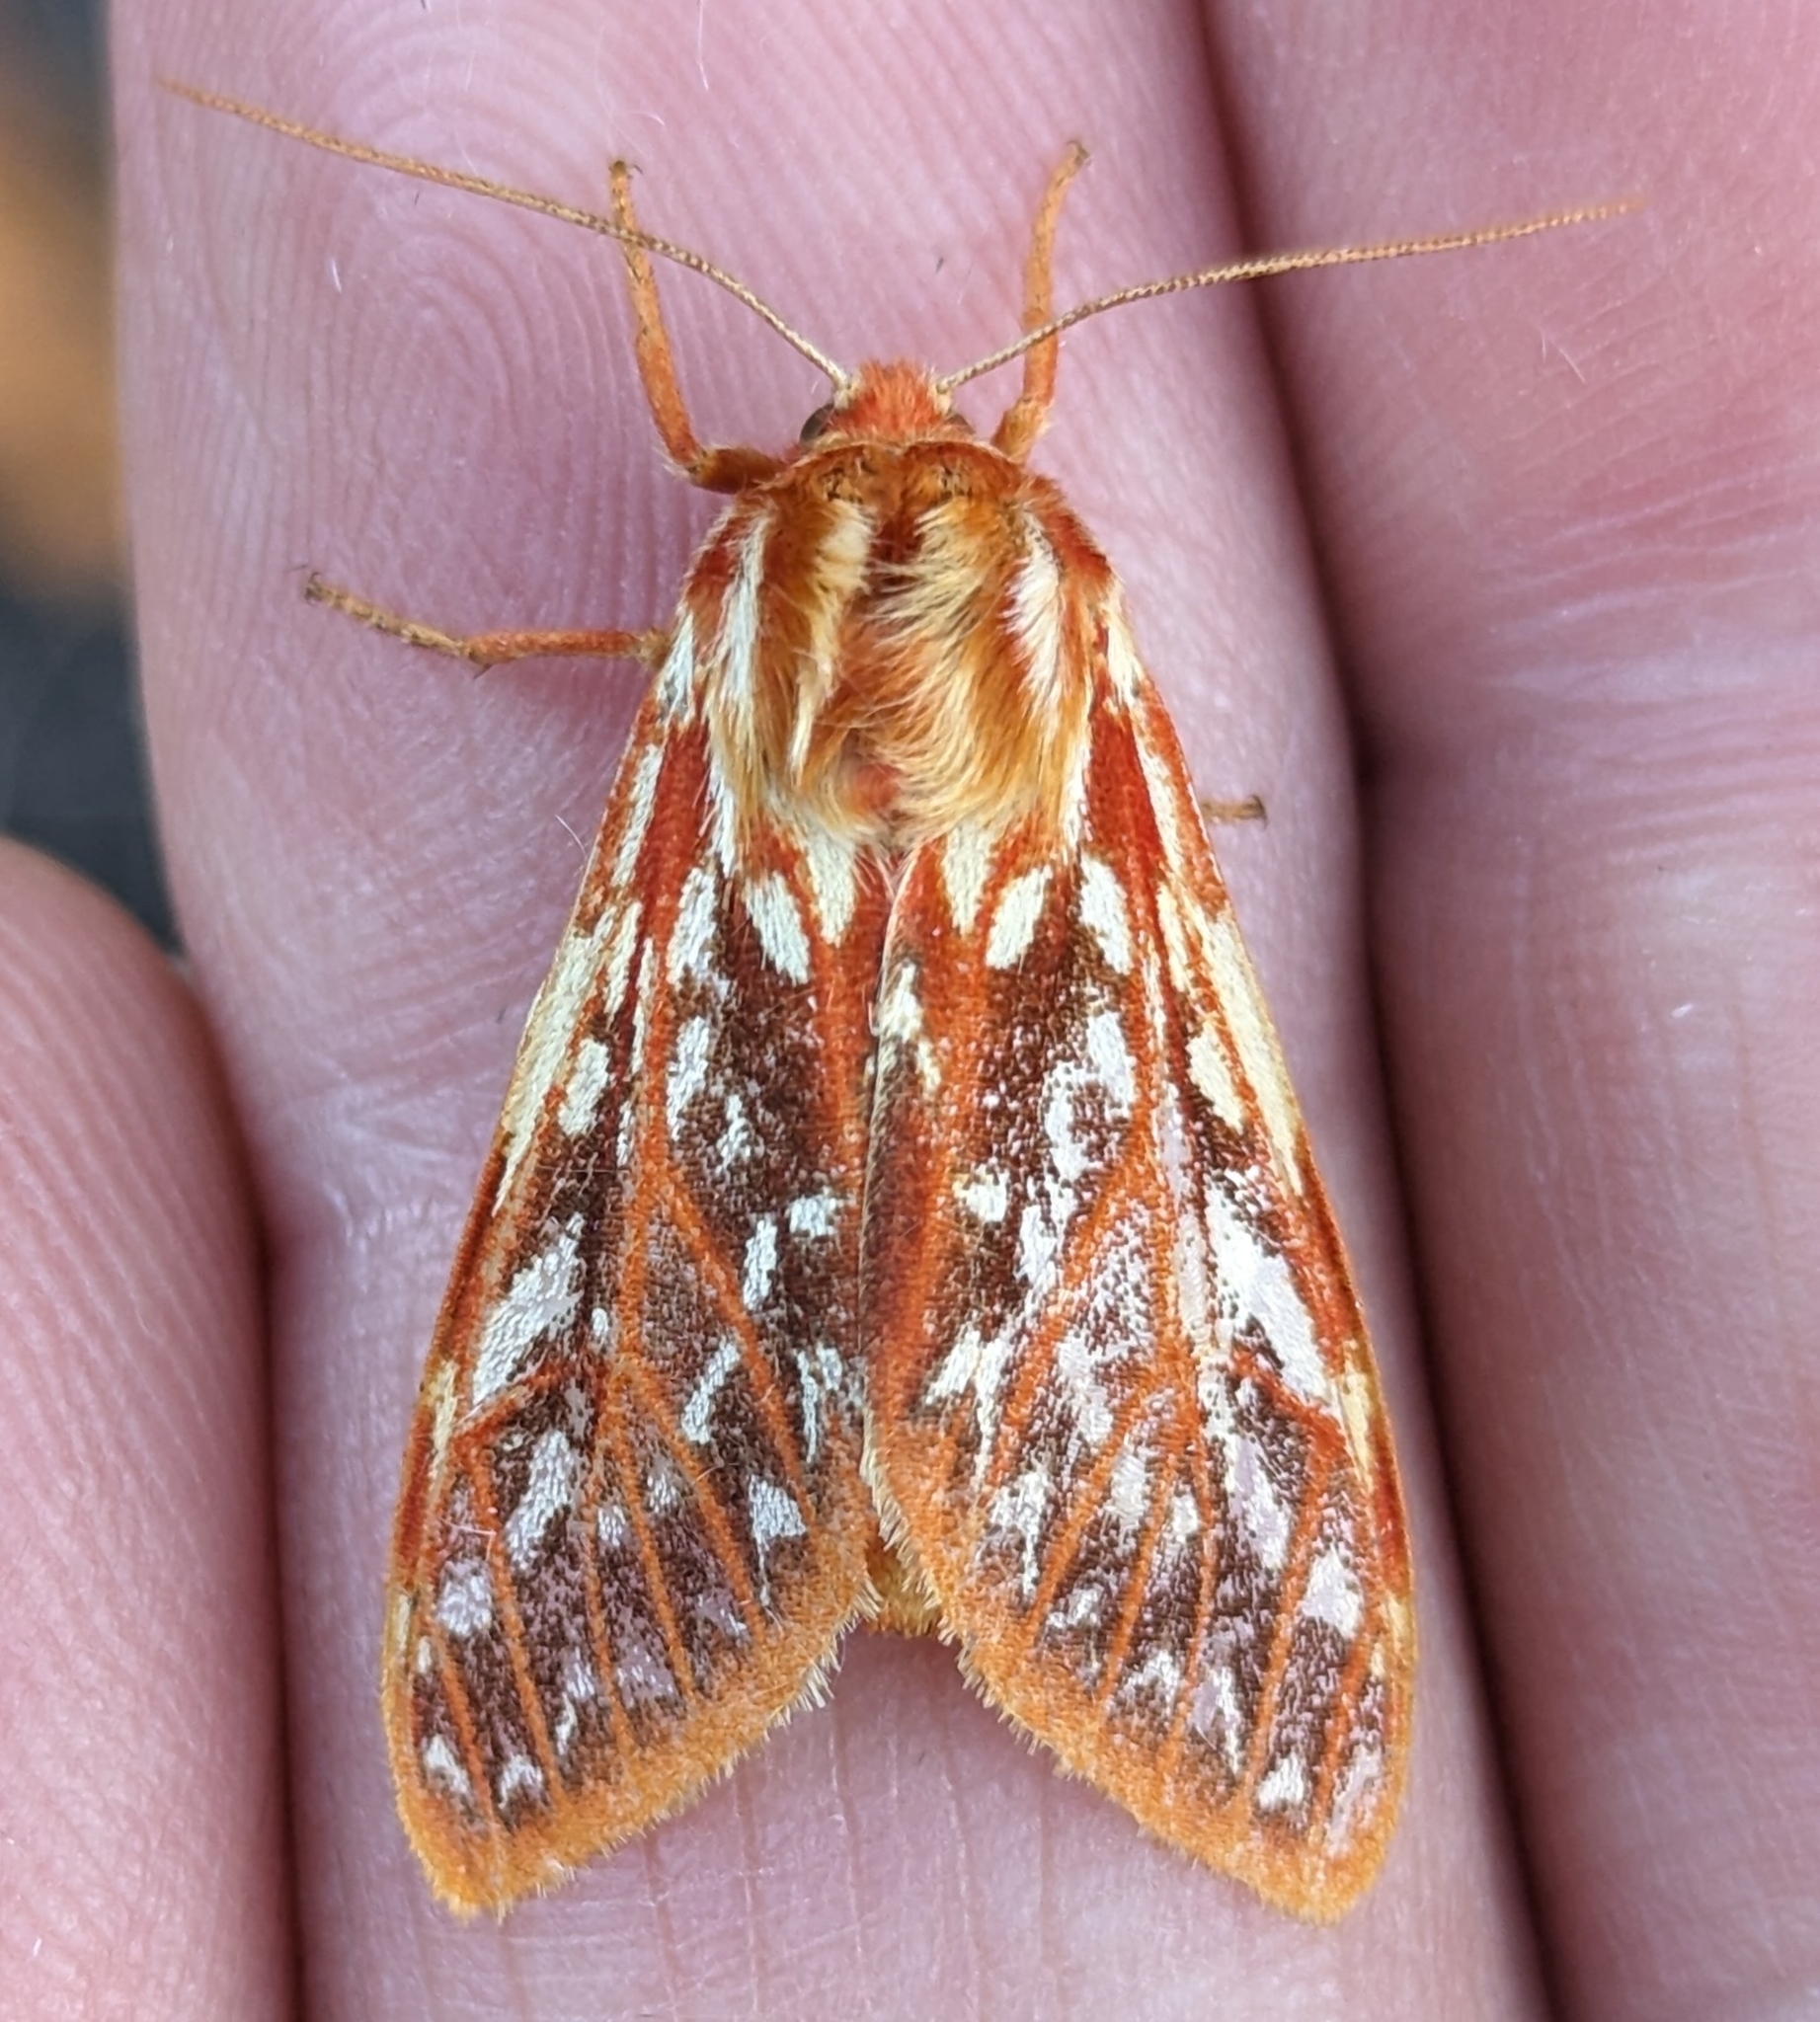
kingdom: Animalia
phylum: Arthropoda
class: Insecta
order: Lepidoptera
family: Erebidae
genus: Lophocampa
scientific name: Lophocampa roseata
